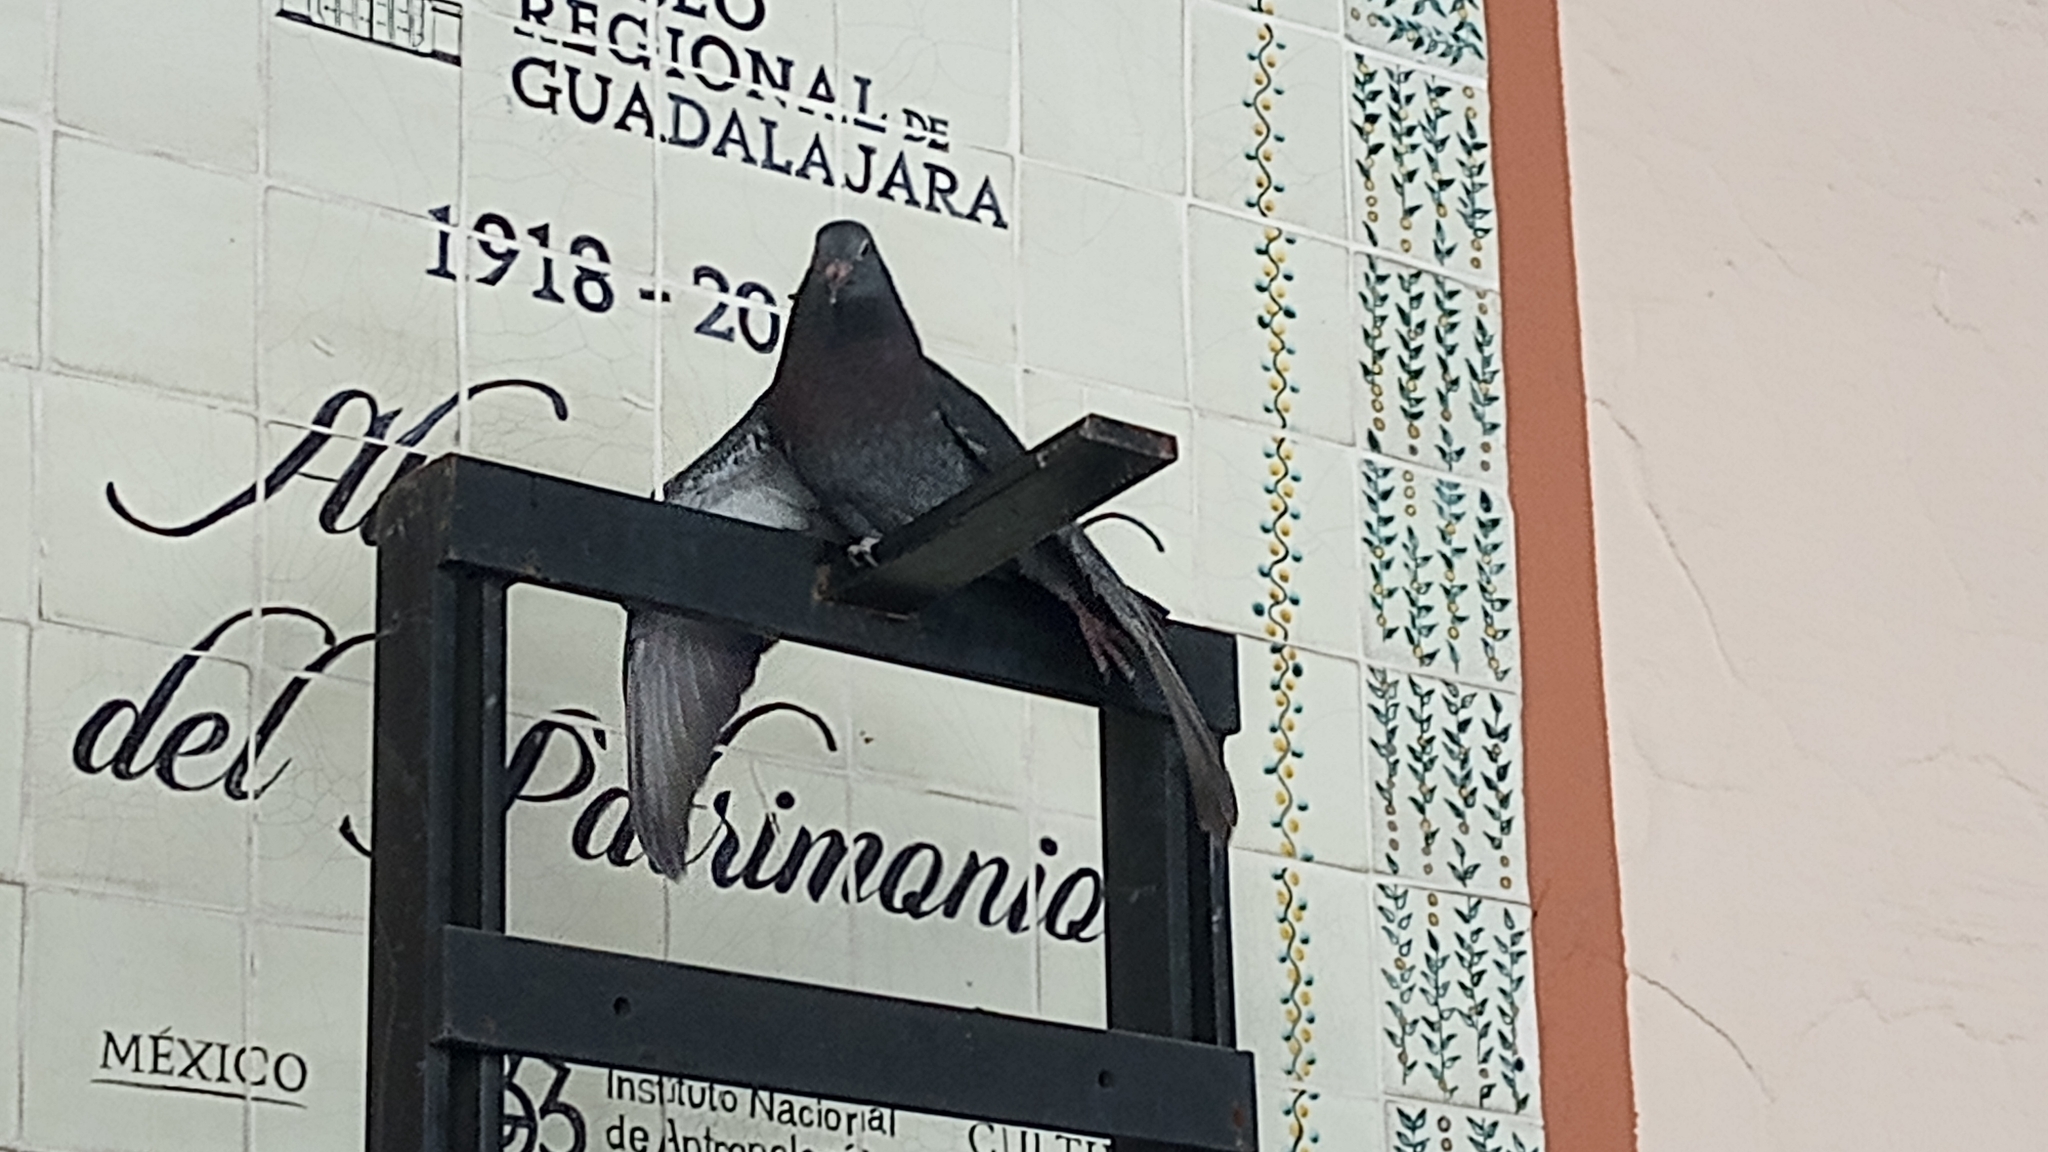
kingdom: Animalia
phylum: Chordata
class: Aves
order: Columbiformes
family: Columbidae
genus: Columba
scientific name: Columba livia
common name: Rock pigeon
